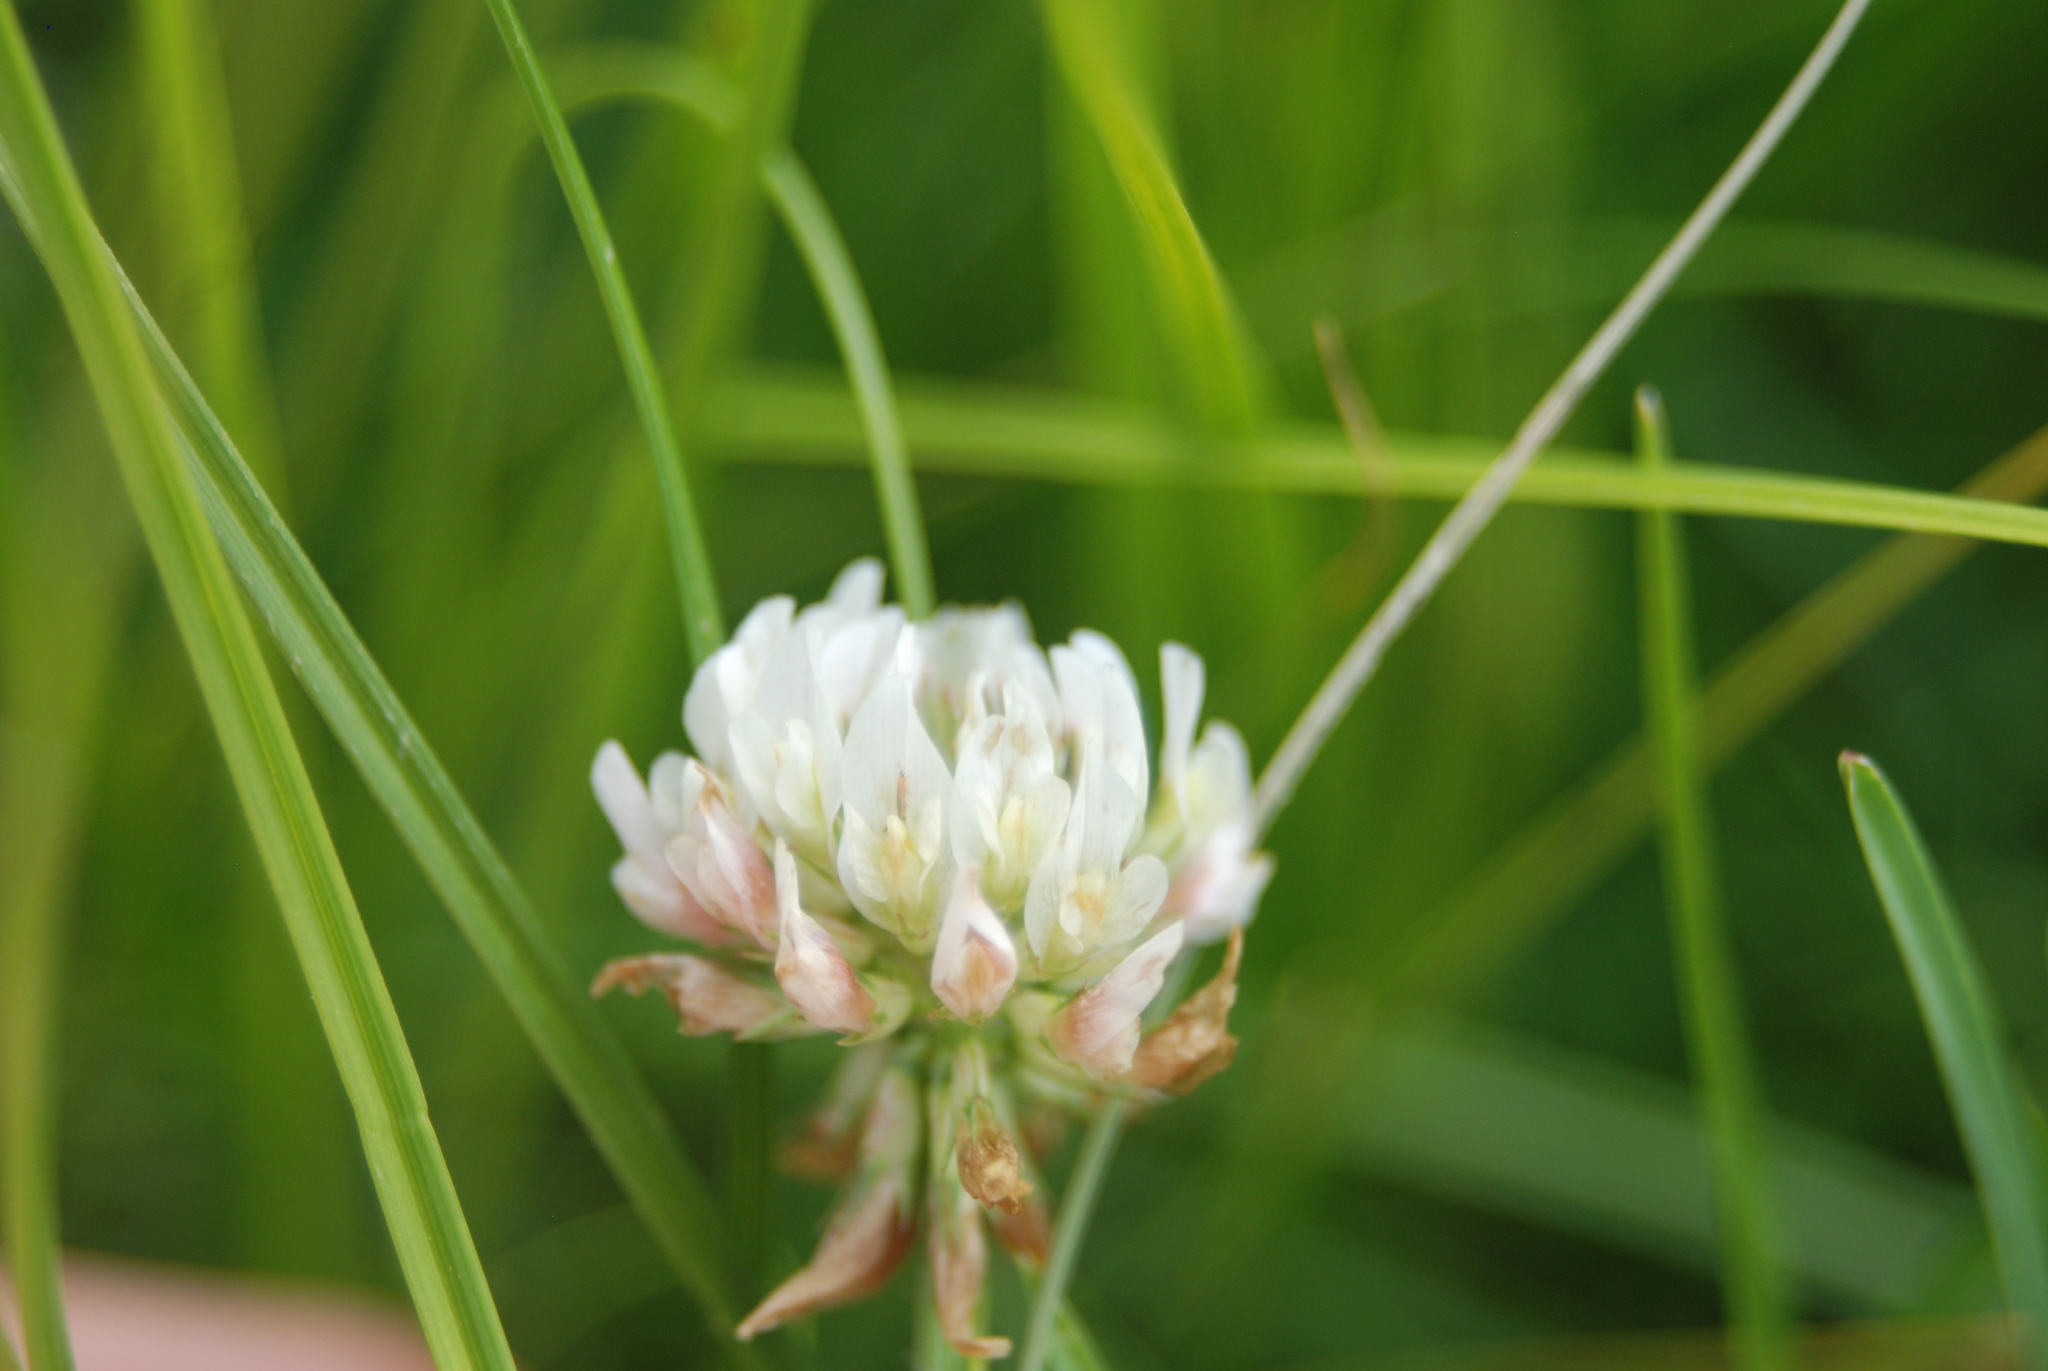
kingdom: Plantae
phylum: Tracheophyta
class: Magnoliopsida
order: Fabales
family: Fabaceae
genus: Trifolium
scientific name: Trifolium repens
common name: White clover
